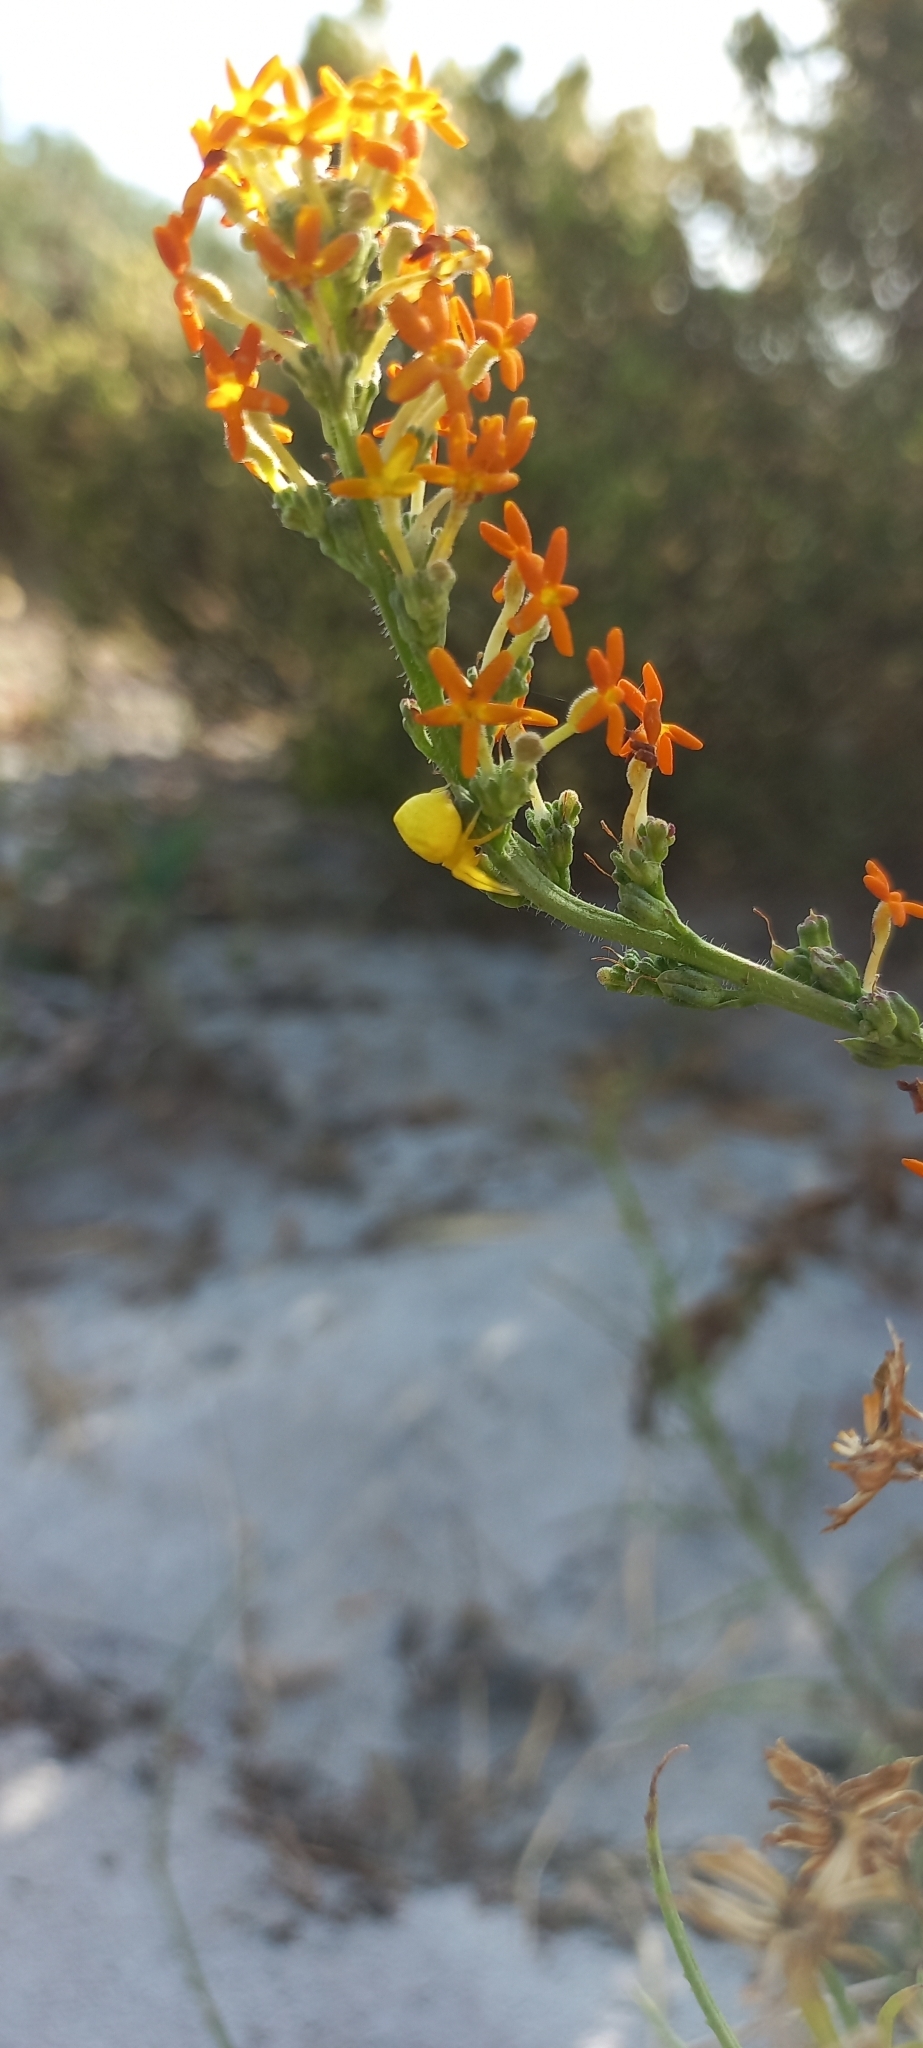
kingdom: Plantae
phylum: Tracheophyta
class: Magnoliopsida
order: Lamiales
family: Scrophulariaceae
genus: Manulea
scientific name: Manulea rubra
